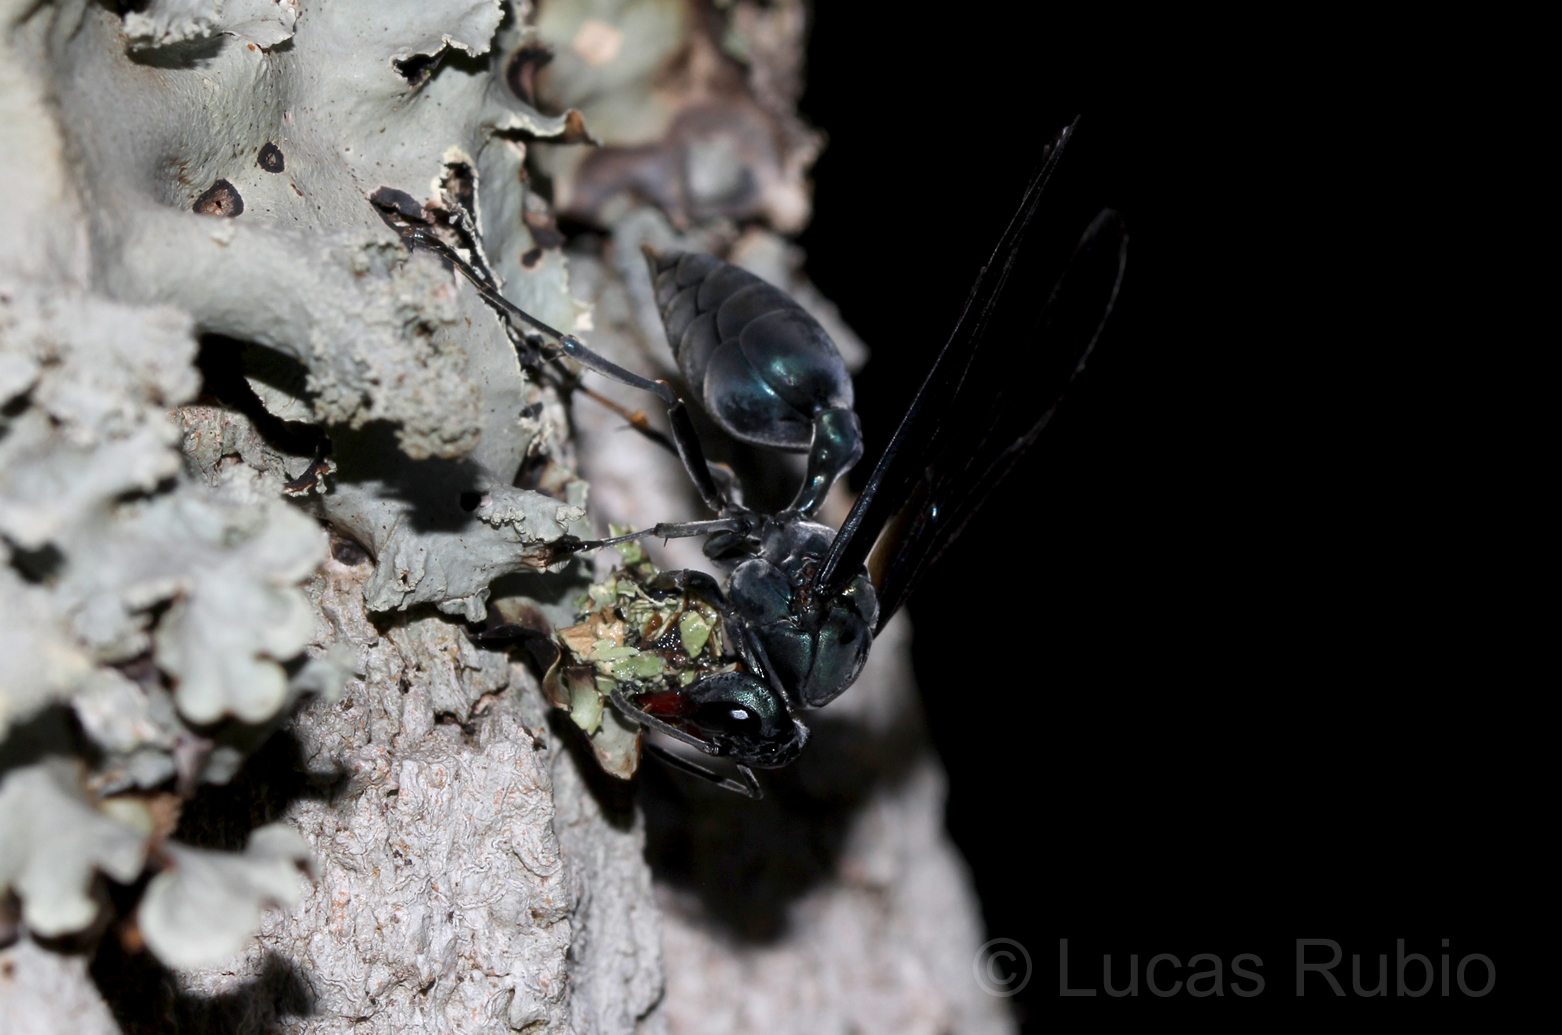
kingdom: Animalia
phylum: Arthropoda
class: Insecta
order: Hymenoptera
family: Vespidae
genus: Synoeca
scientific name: Synoeca cyanea
